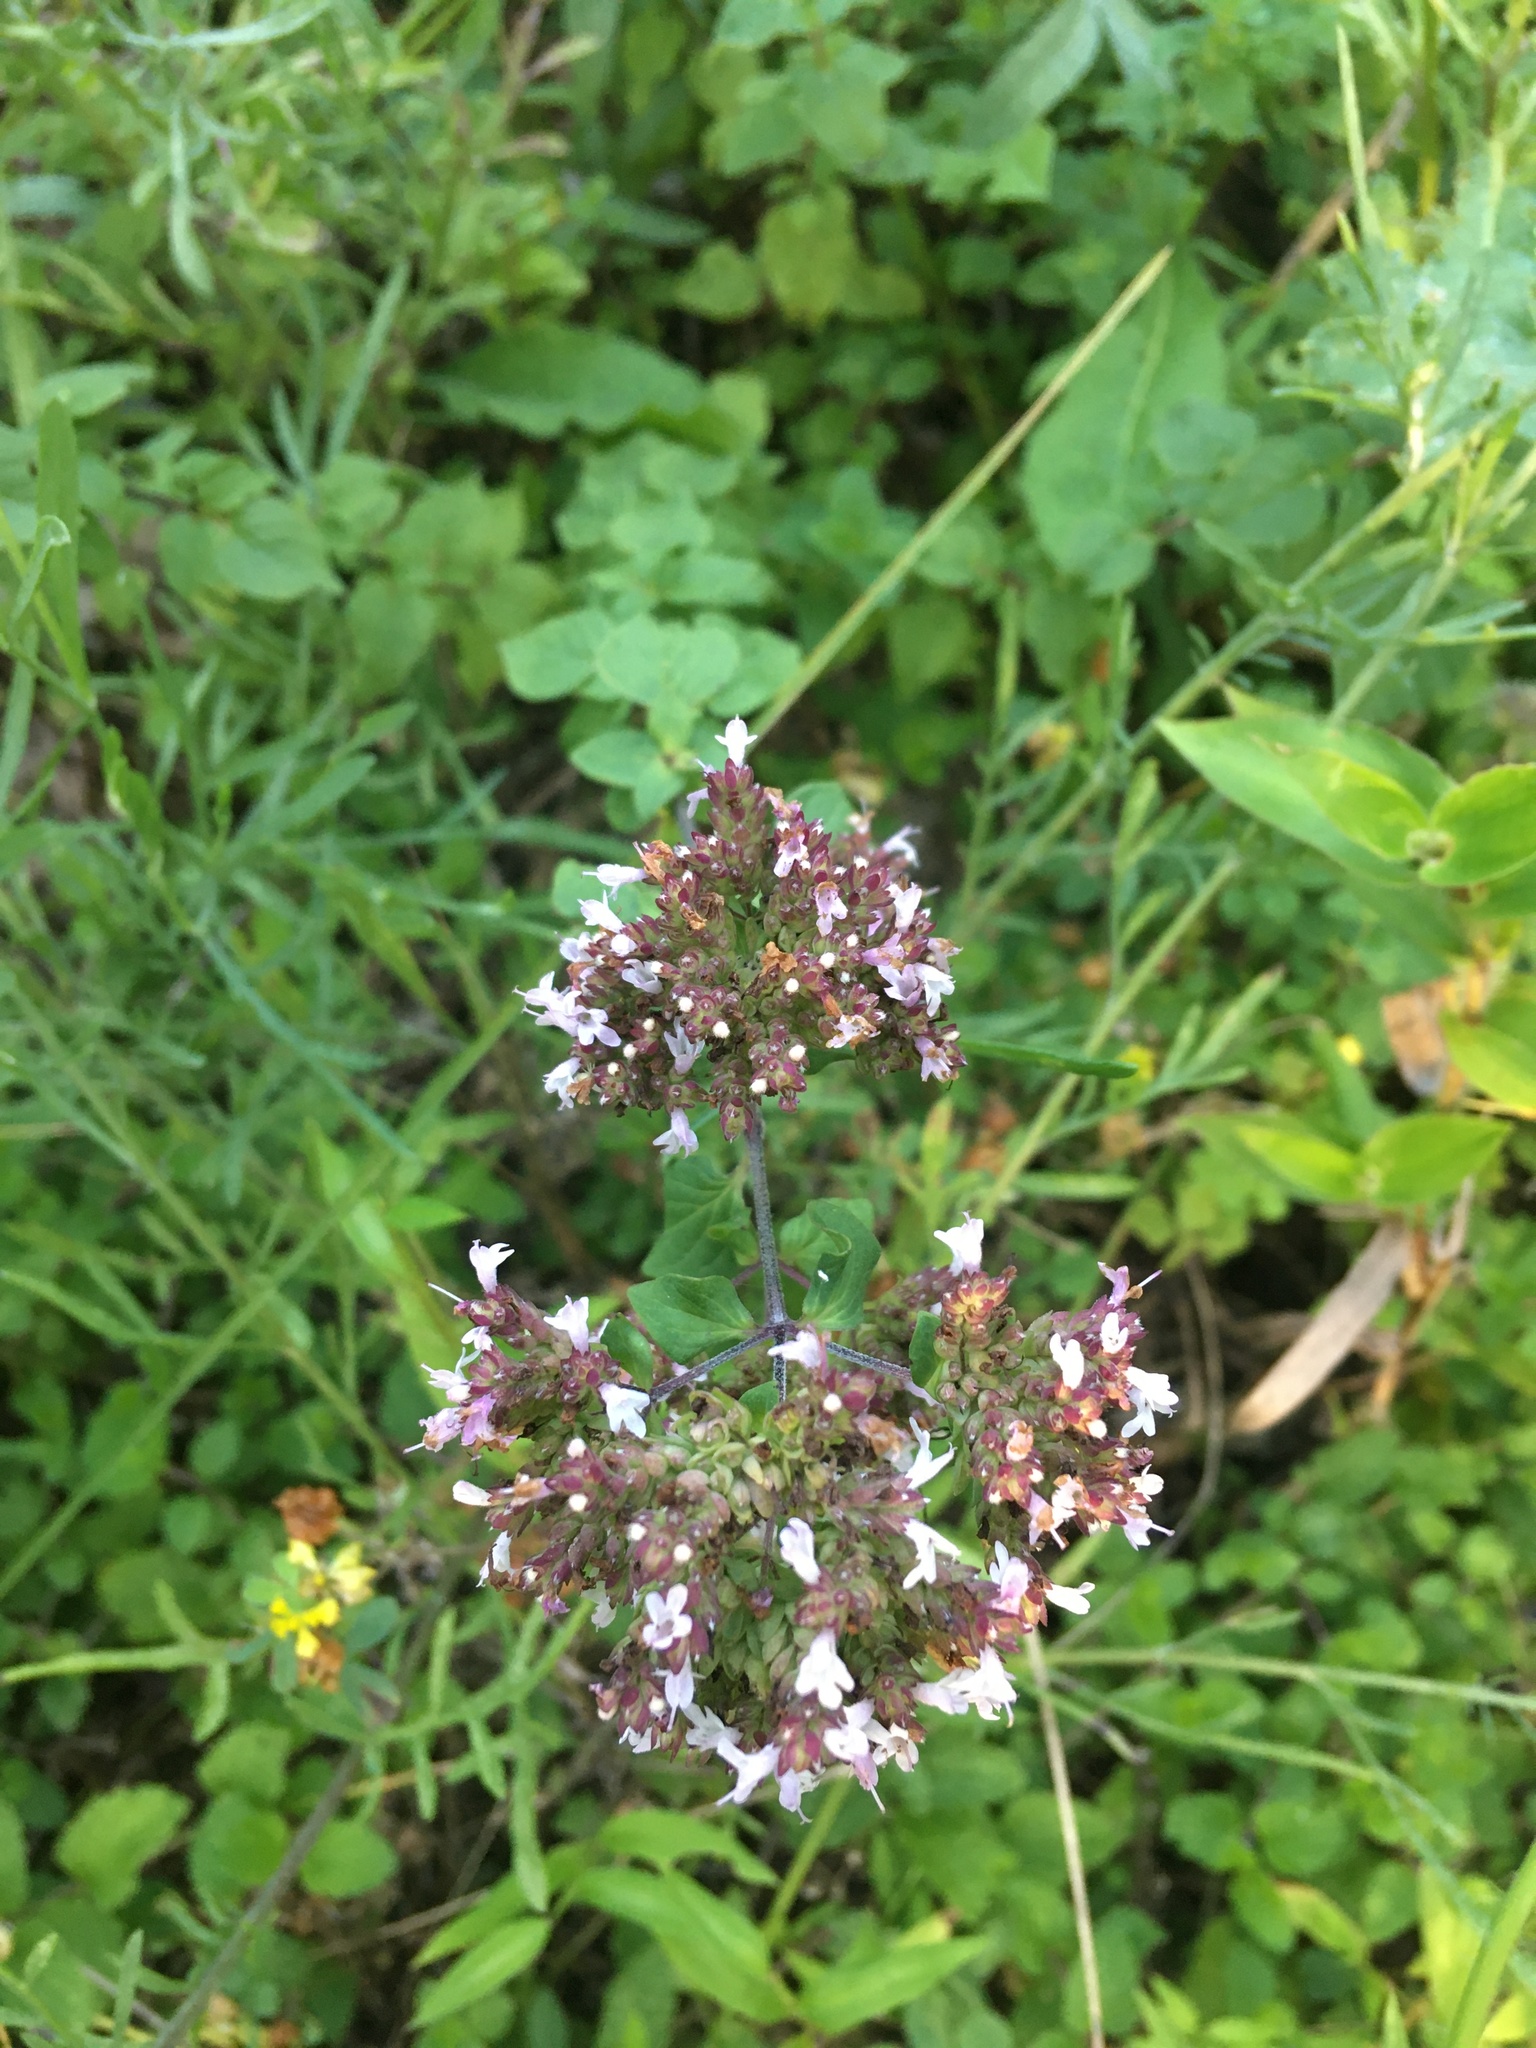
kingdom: Plantae
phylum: Tracheophyta
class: Magnoliopsida
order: Lamiales
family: Lamiaceae
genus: Origanum
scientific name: Origanum vulgare
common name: Wild marjoram
